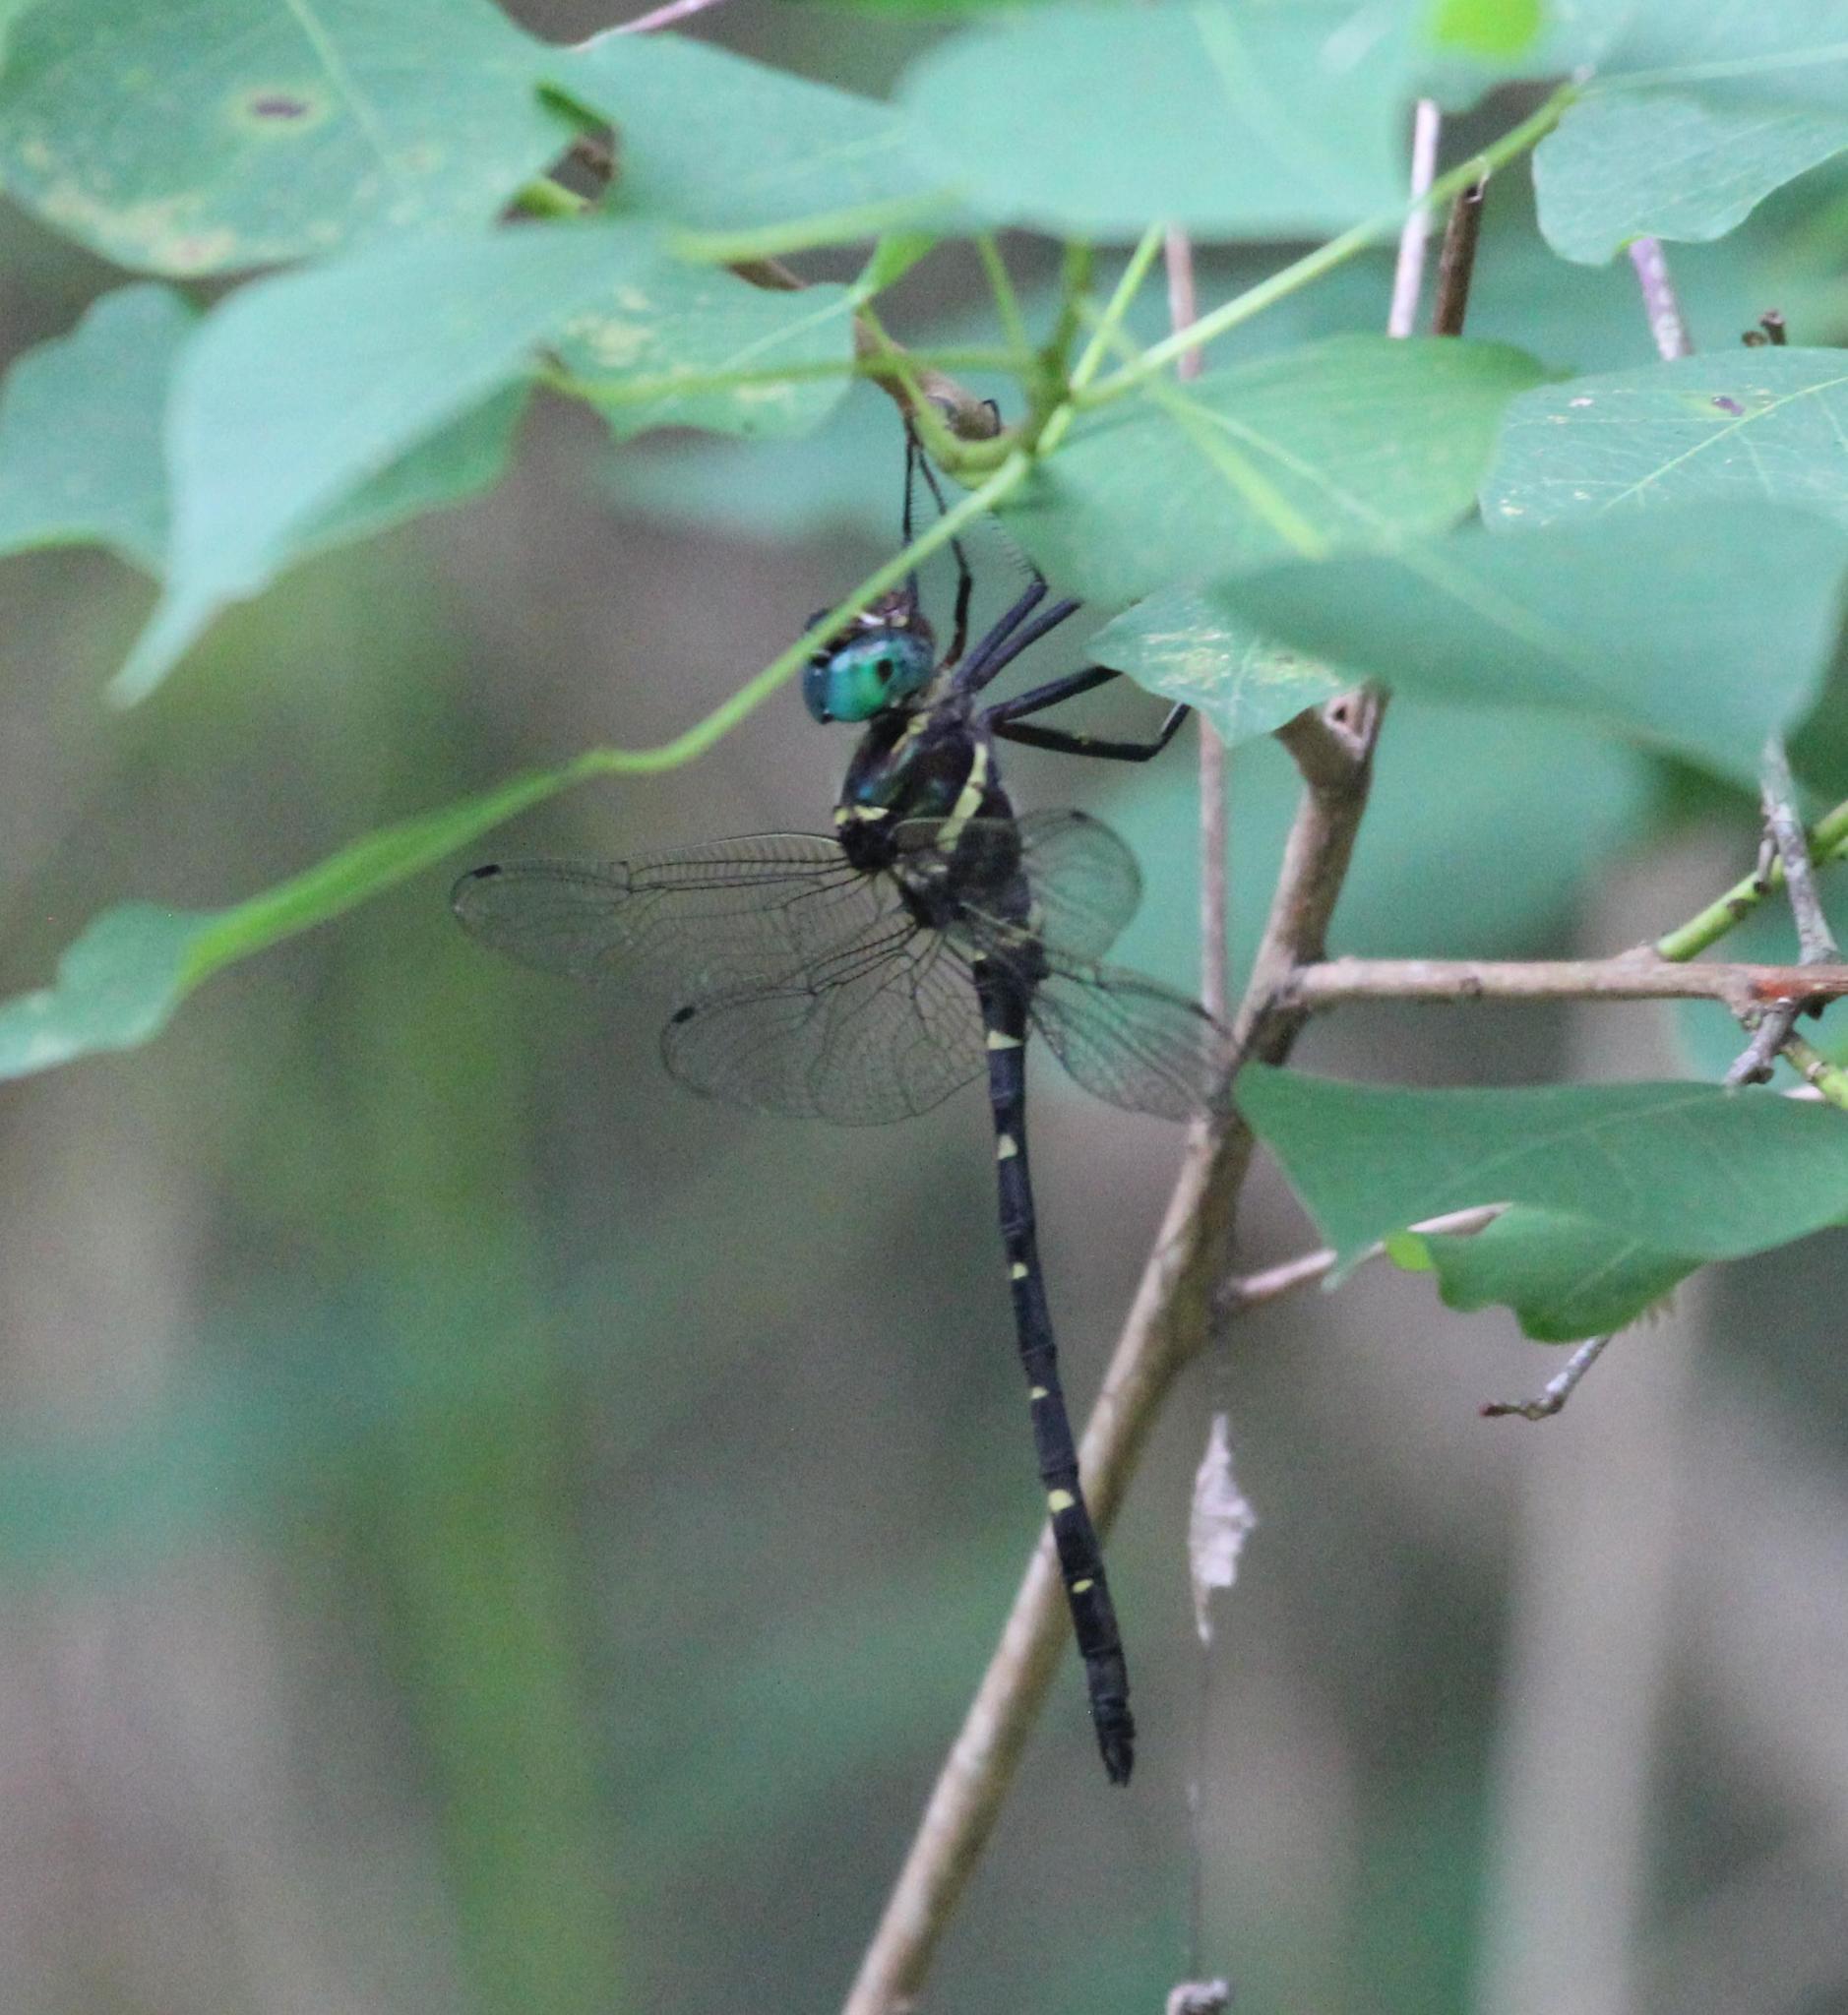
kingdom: Animalia
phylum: Arthropoda
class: Insecta
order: Odonata
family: Macromiidae
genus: Macromia
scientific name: Macromia taeniolata
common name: Royal river cruiser
